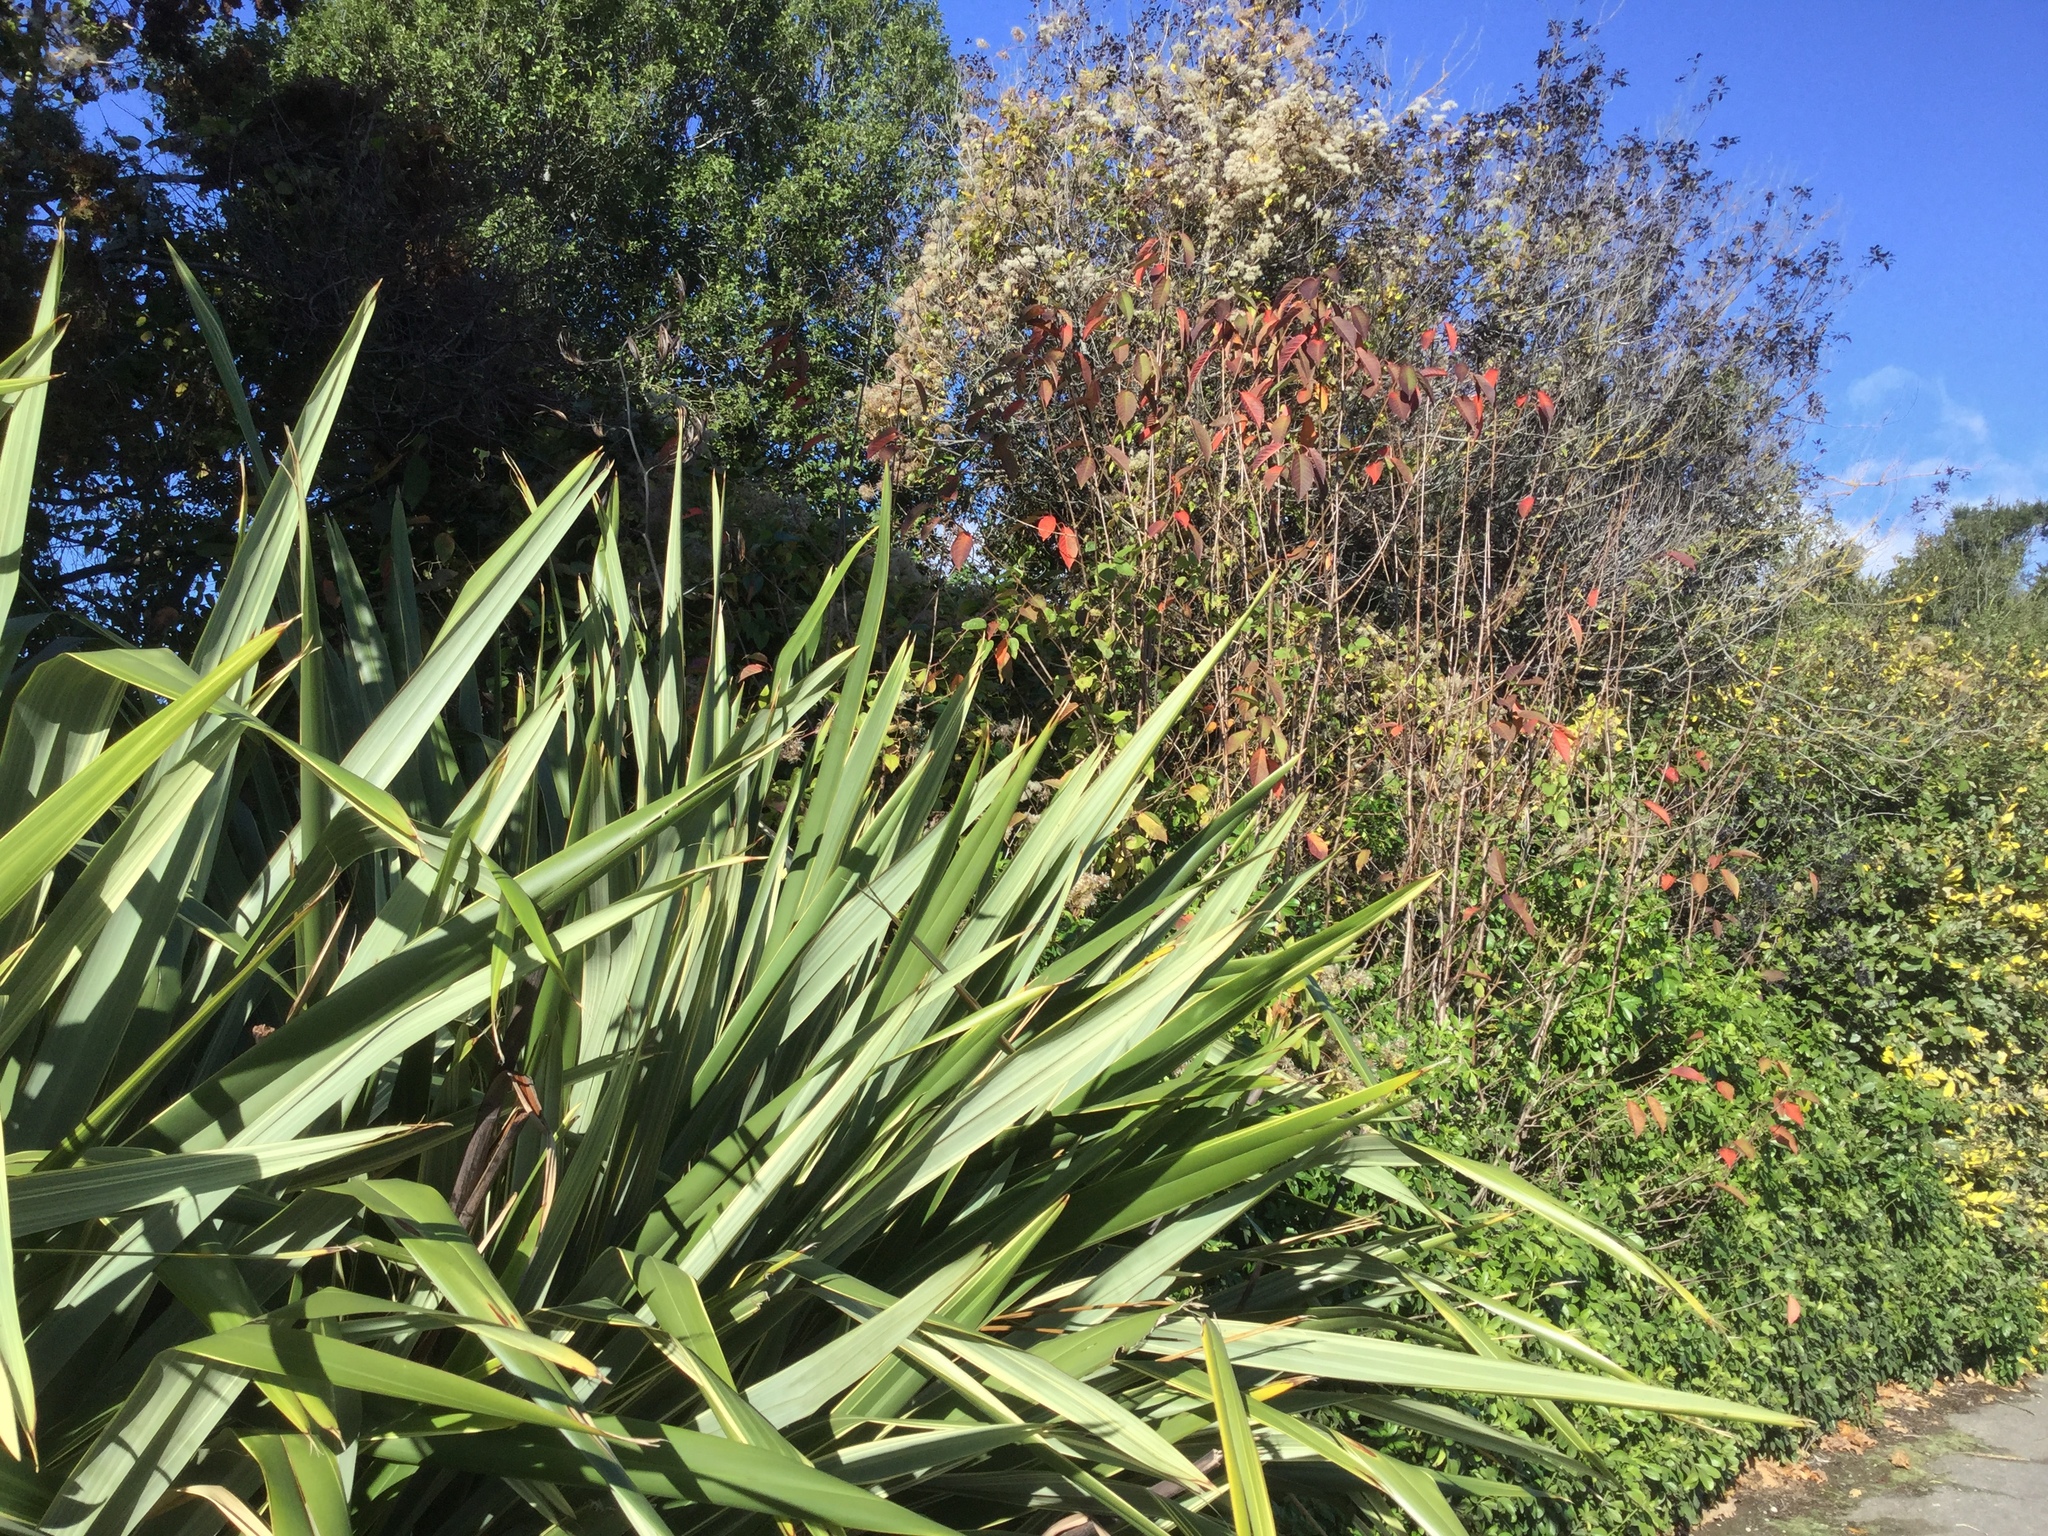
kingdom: Plantae
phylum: Tracheophyta
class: Magnoliopsida
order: Ranunculales
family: Ranunculaceae
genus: Clematis
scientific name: Clematis vitalba
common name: Evergreen clematis
